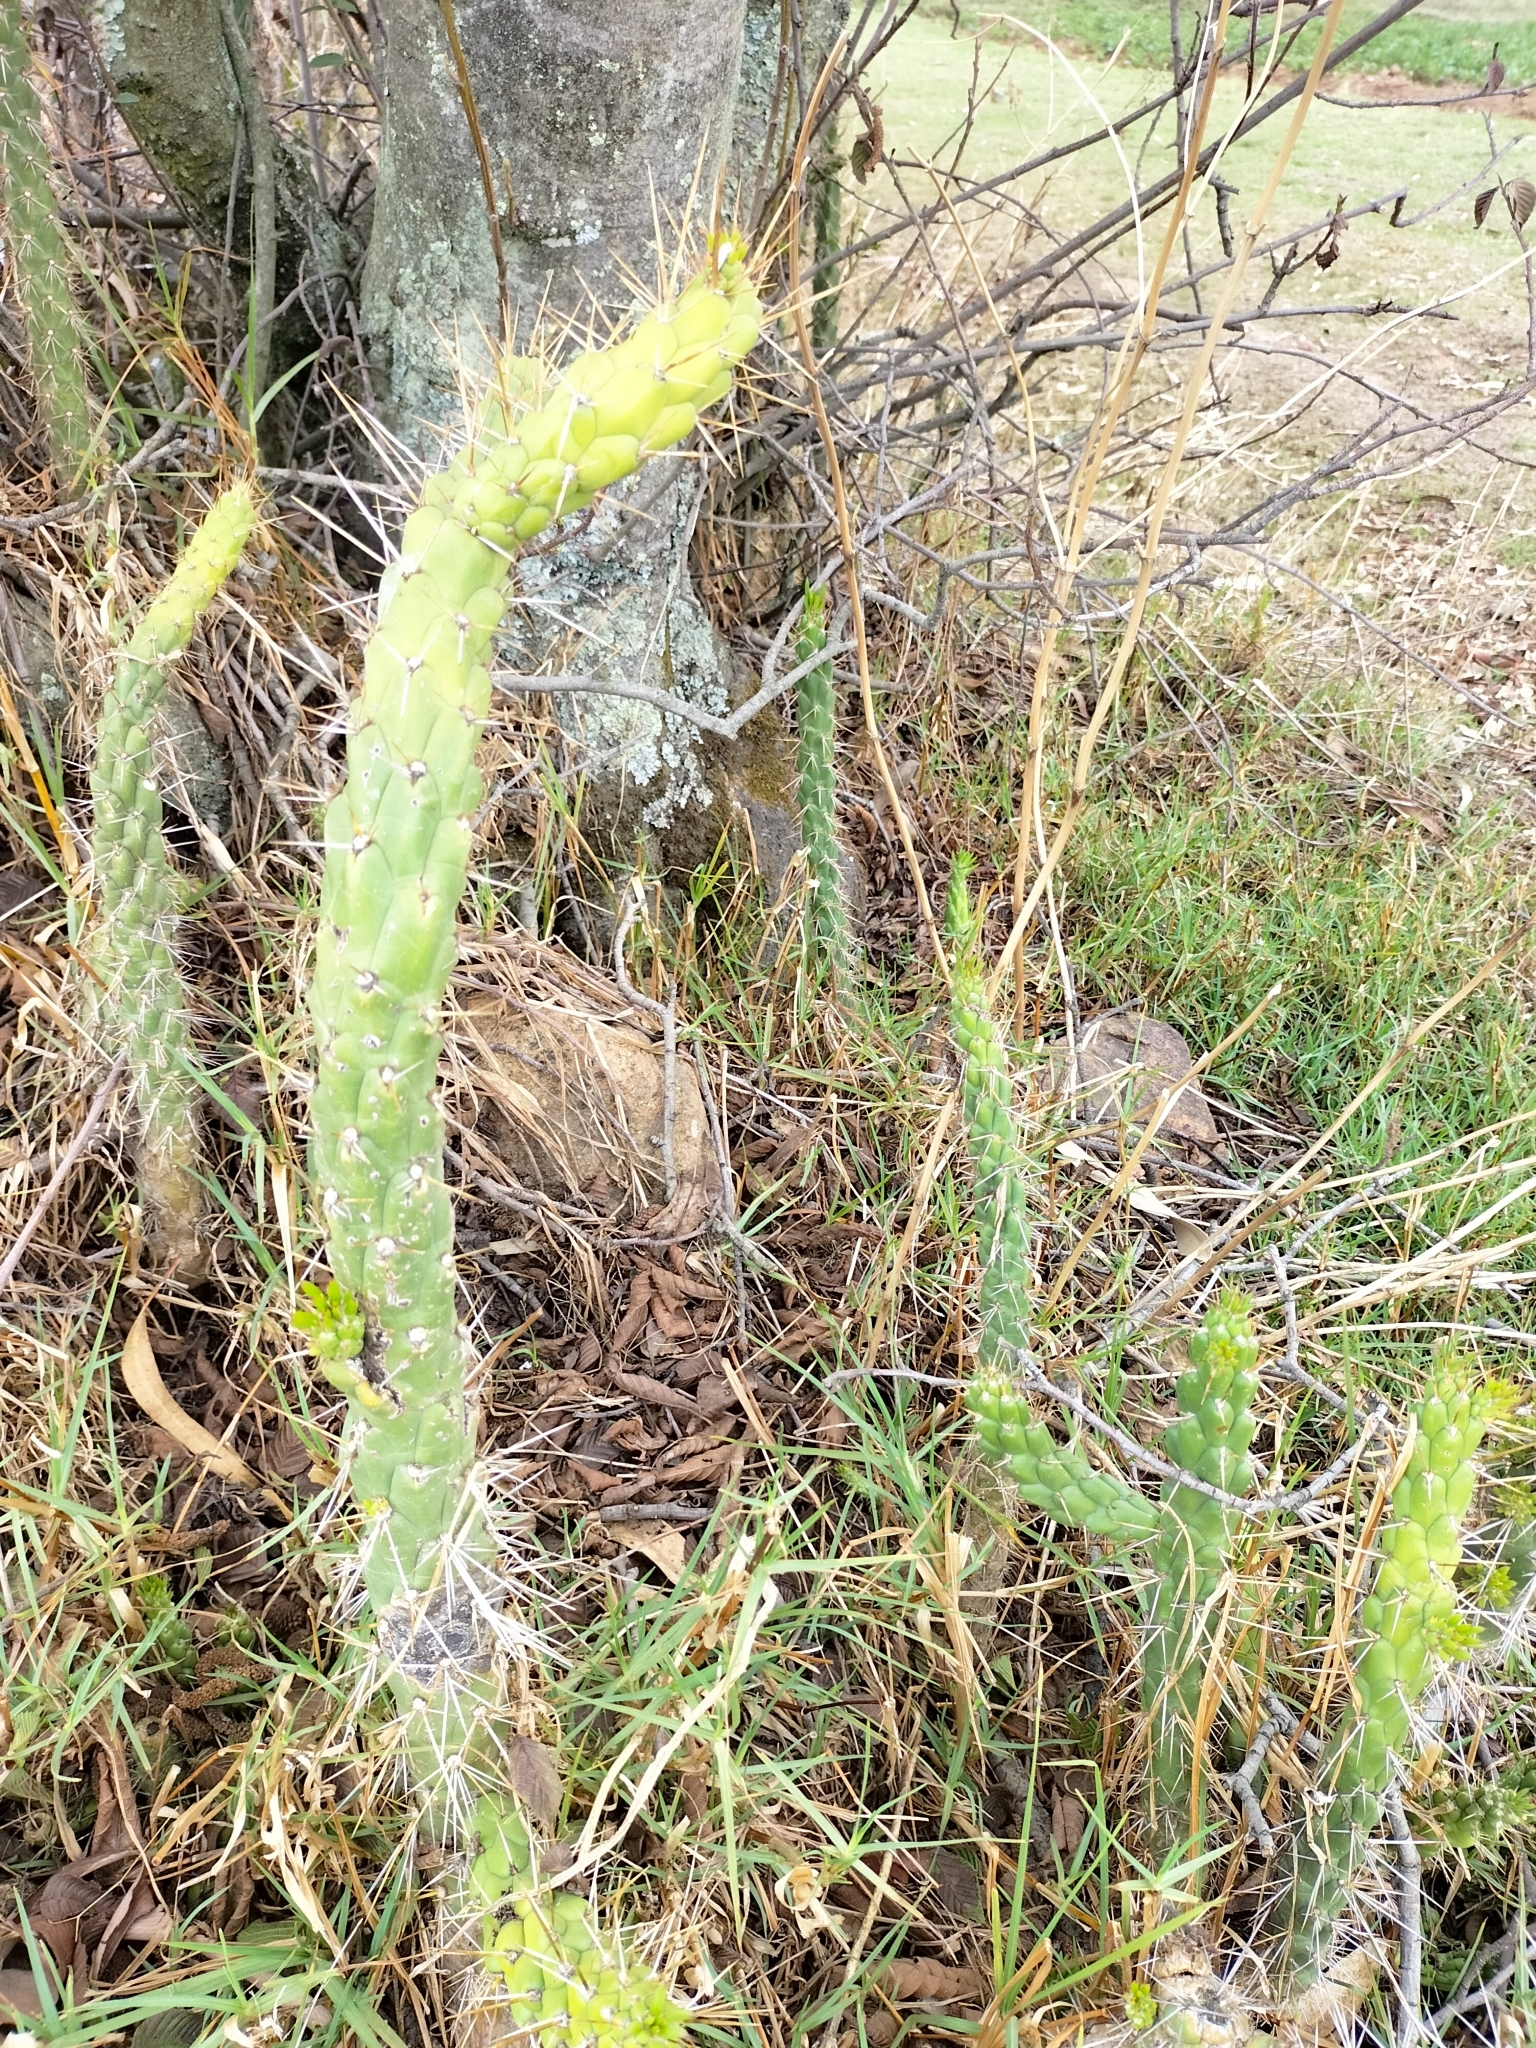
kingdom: Plantae
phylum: Tracheophyta
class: Magnoliopsida
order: Caryophyllales
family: Cactaceae
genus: Austrocylindropuntia
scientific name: Austrocylindropuntia subulata
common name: Eve's needle cactus
